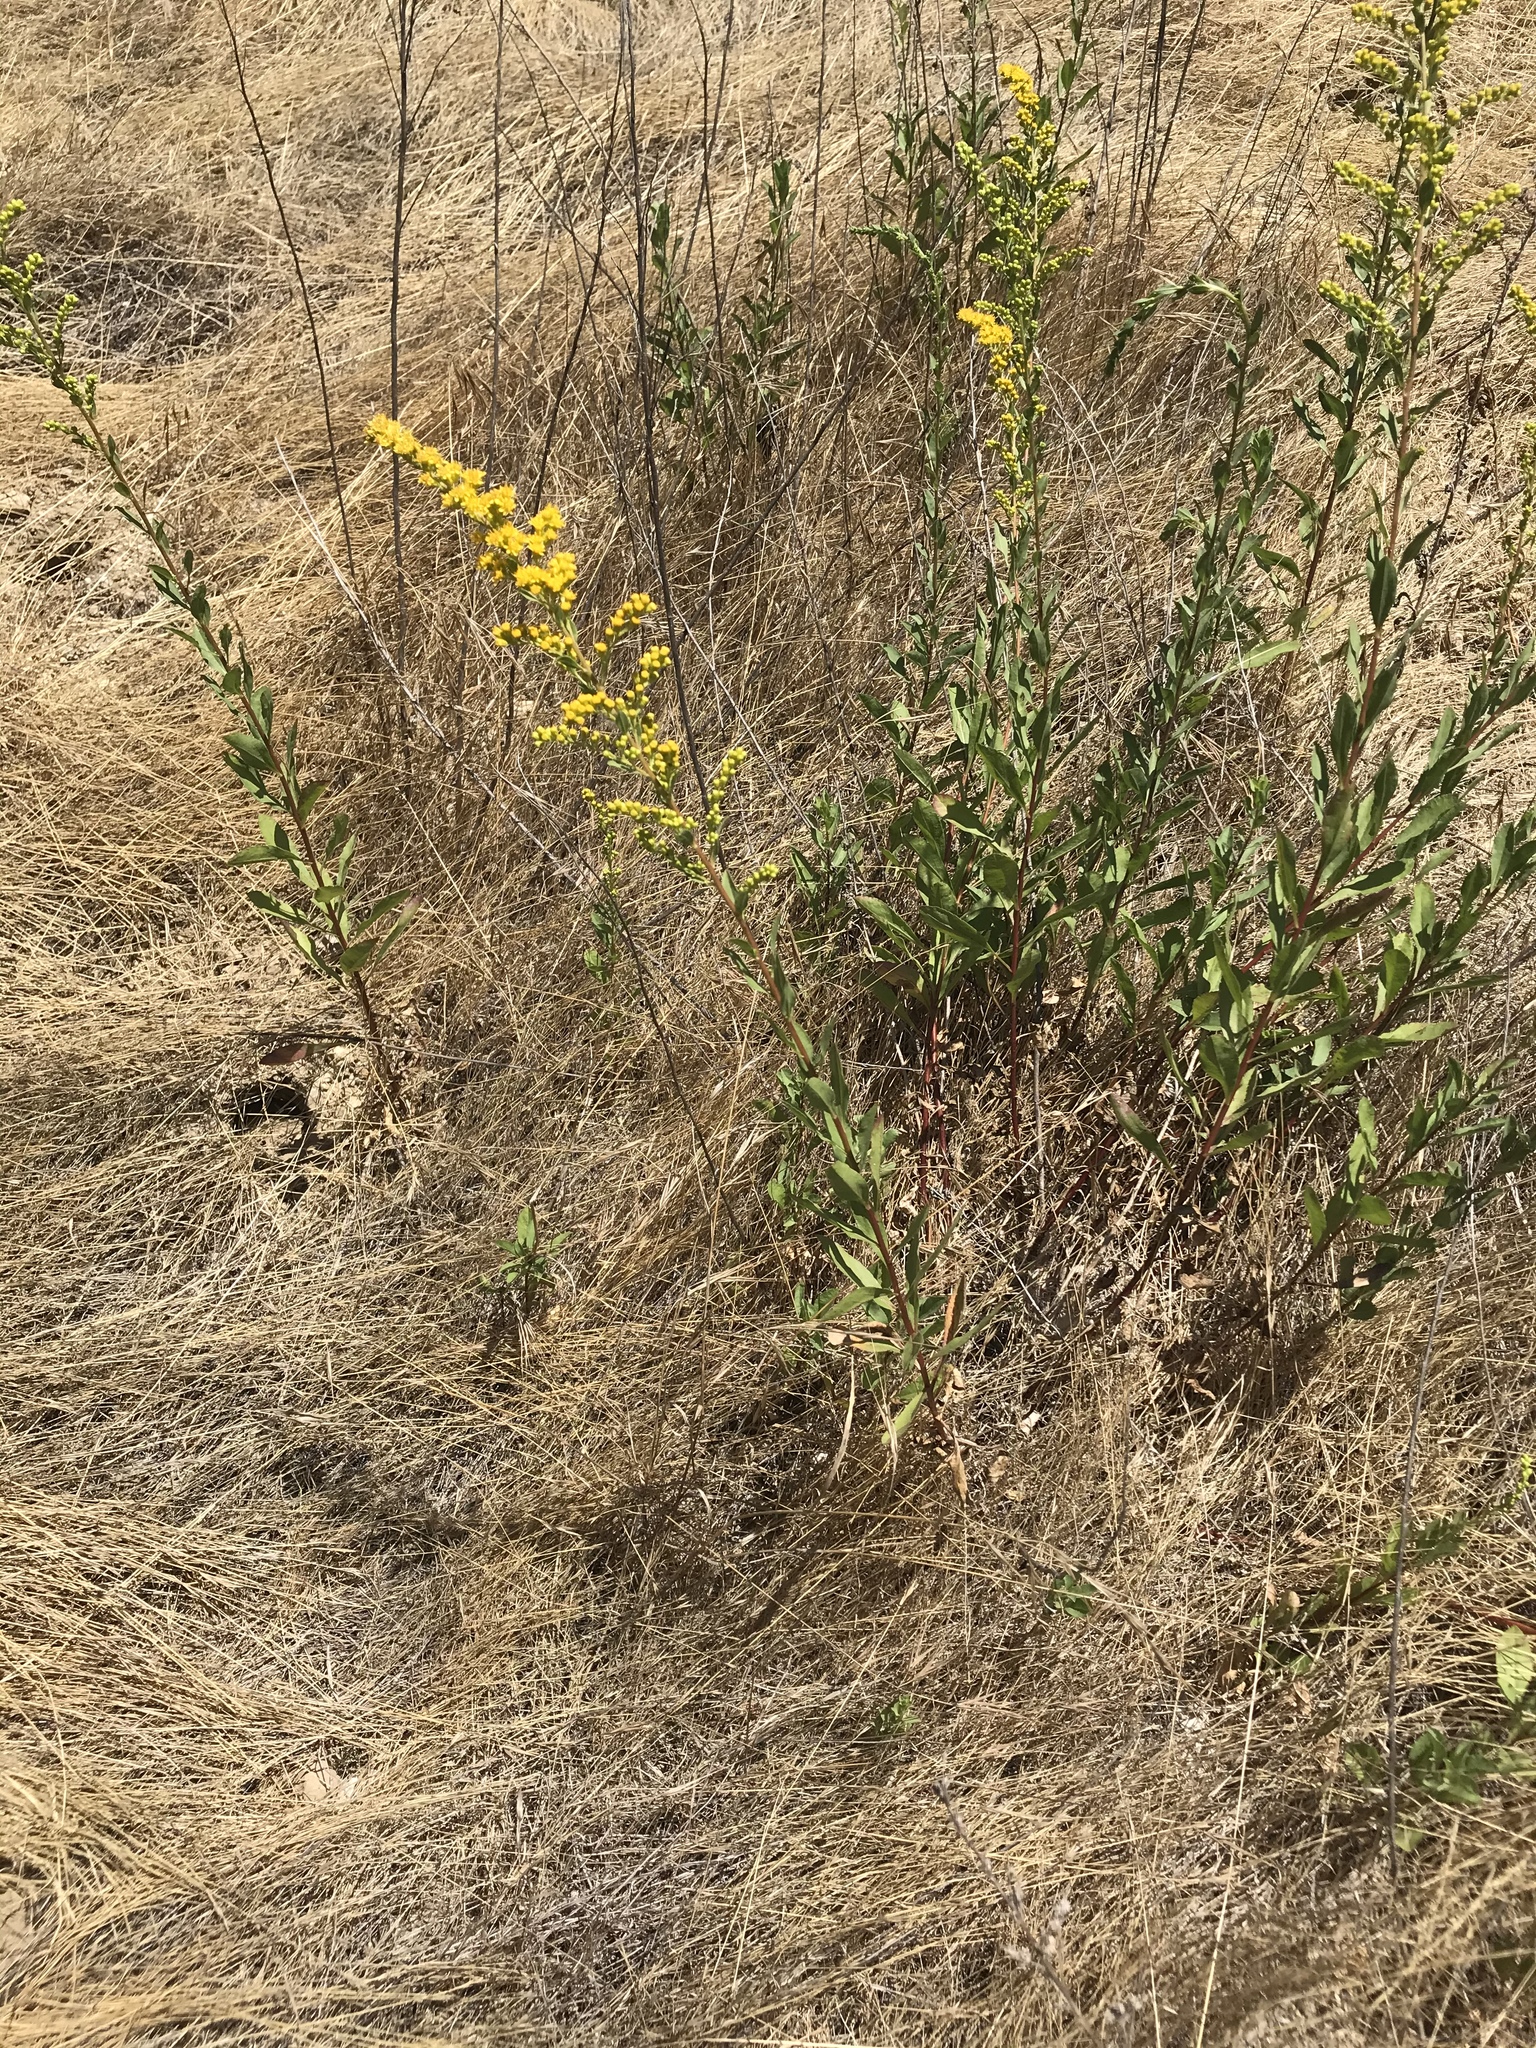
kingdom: Plantae
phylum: Tracheophyta
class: Magnoliopsida
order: Asterales
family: Asteraceae
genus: Solidago
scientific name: Solidago velutina
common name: Three-nerve goldenrod
